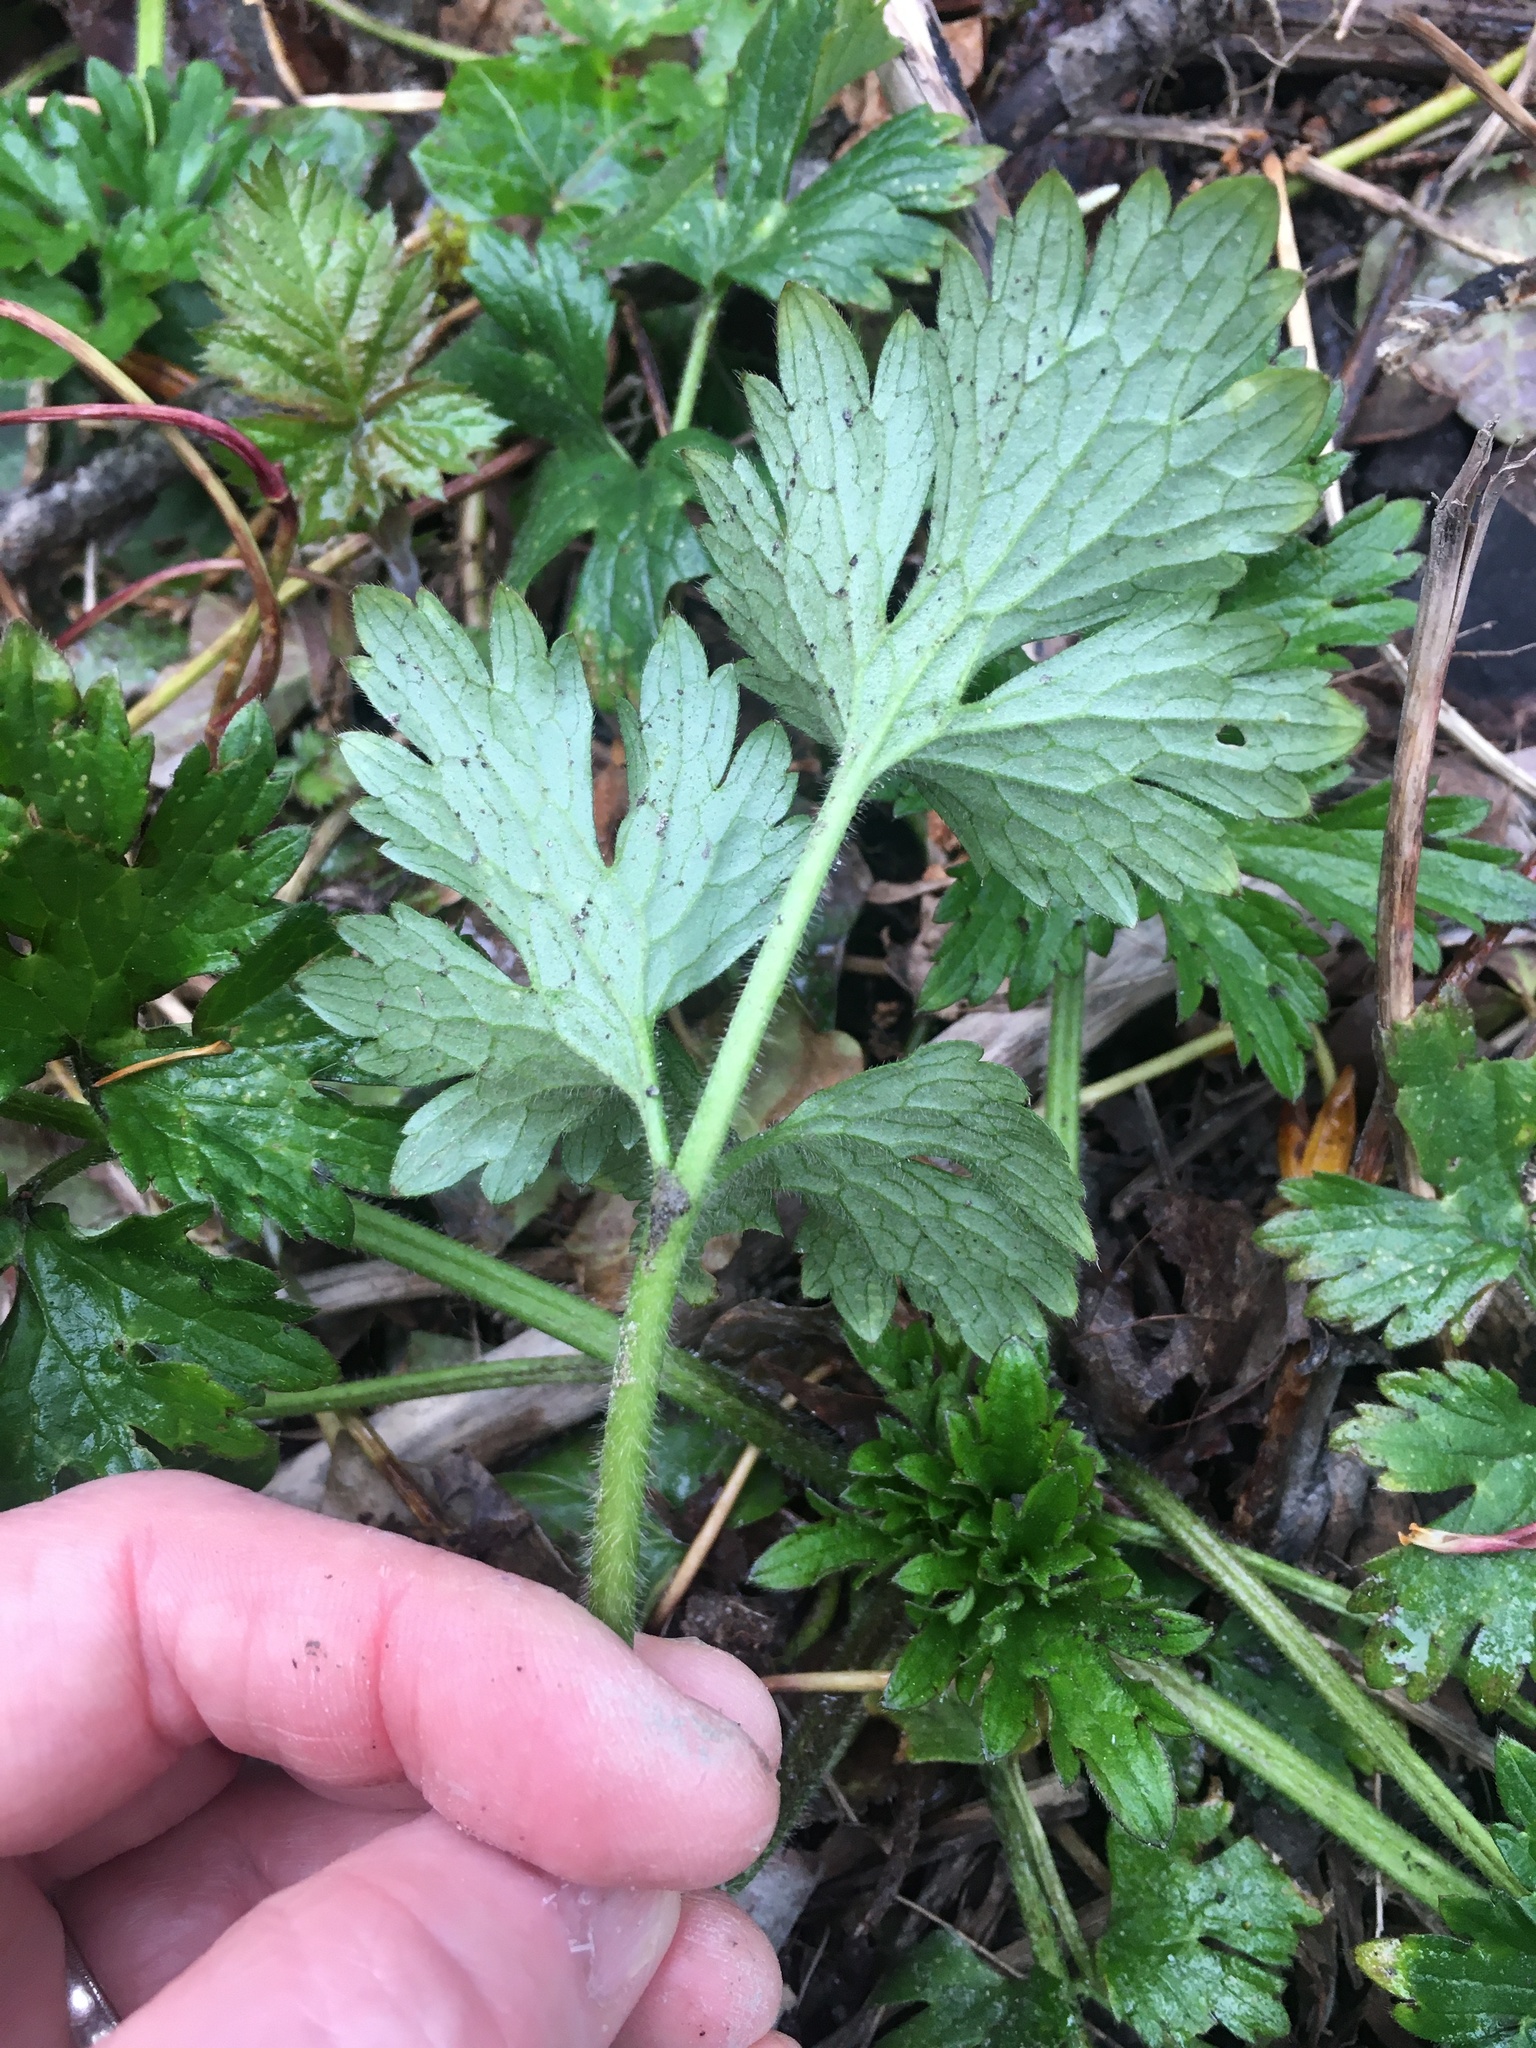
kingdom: Plantae
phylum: Tracheophyta
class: Magnoliopsida
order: Ranunculales
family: Ranunculaceae
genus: Ranunculus
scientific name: Ranunculus repens
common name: Creeping buttercup
